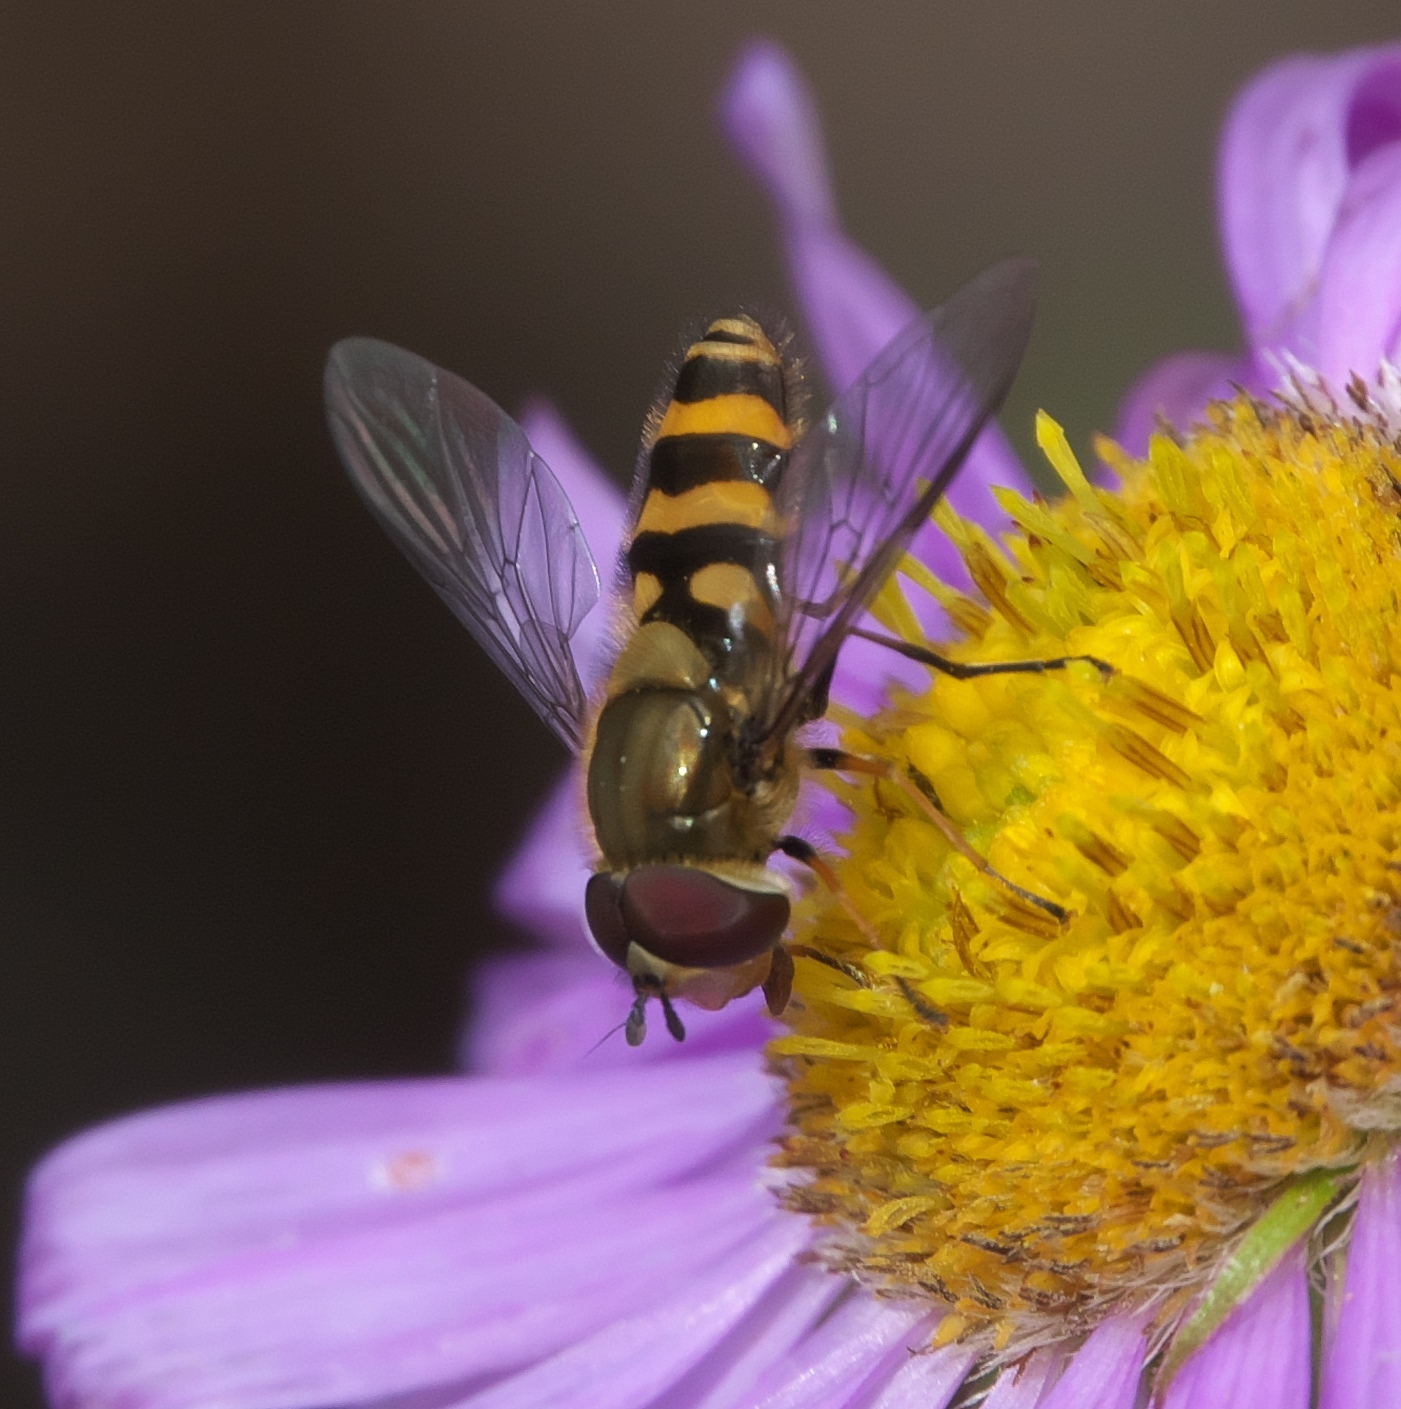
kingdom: Animalia
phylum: Arthropoda
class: Insecta
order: Diptera
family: Syrphidae
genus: Syrphus
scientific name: Syrphus torvus
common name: Hairy-eyed flower fly
